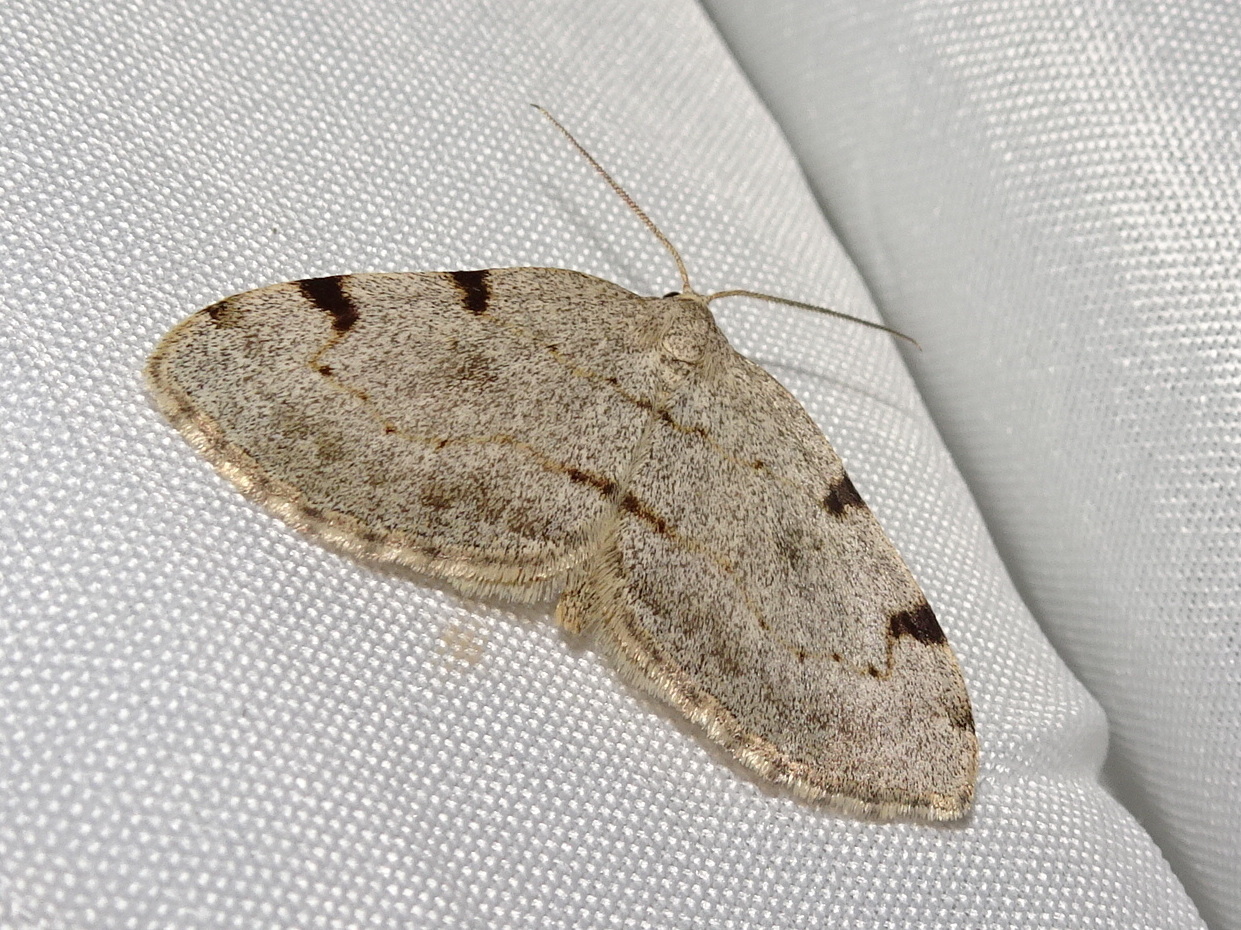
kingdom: Animalia
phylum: Arthropoda
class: Insecta
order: Lepidoptera
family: Geometridae
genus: Heterophleps
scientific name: Heterophleps refusaria
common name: Three-patched bigwing
